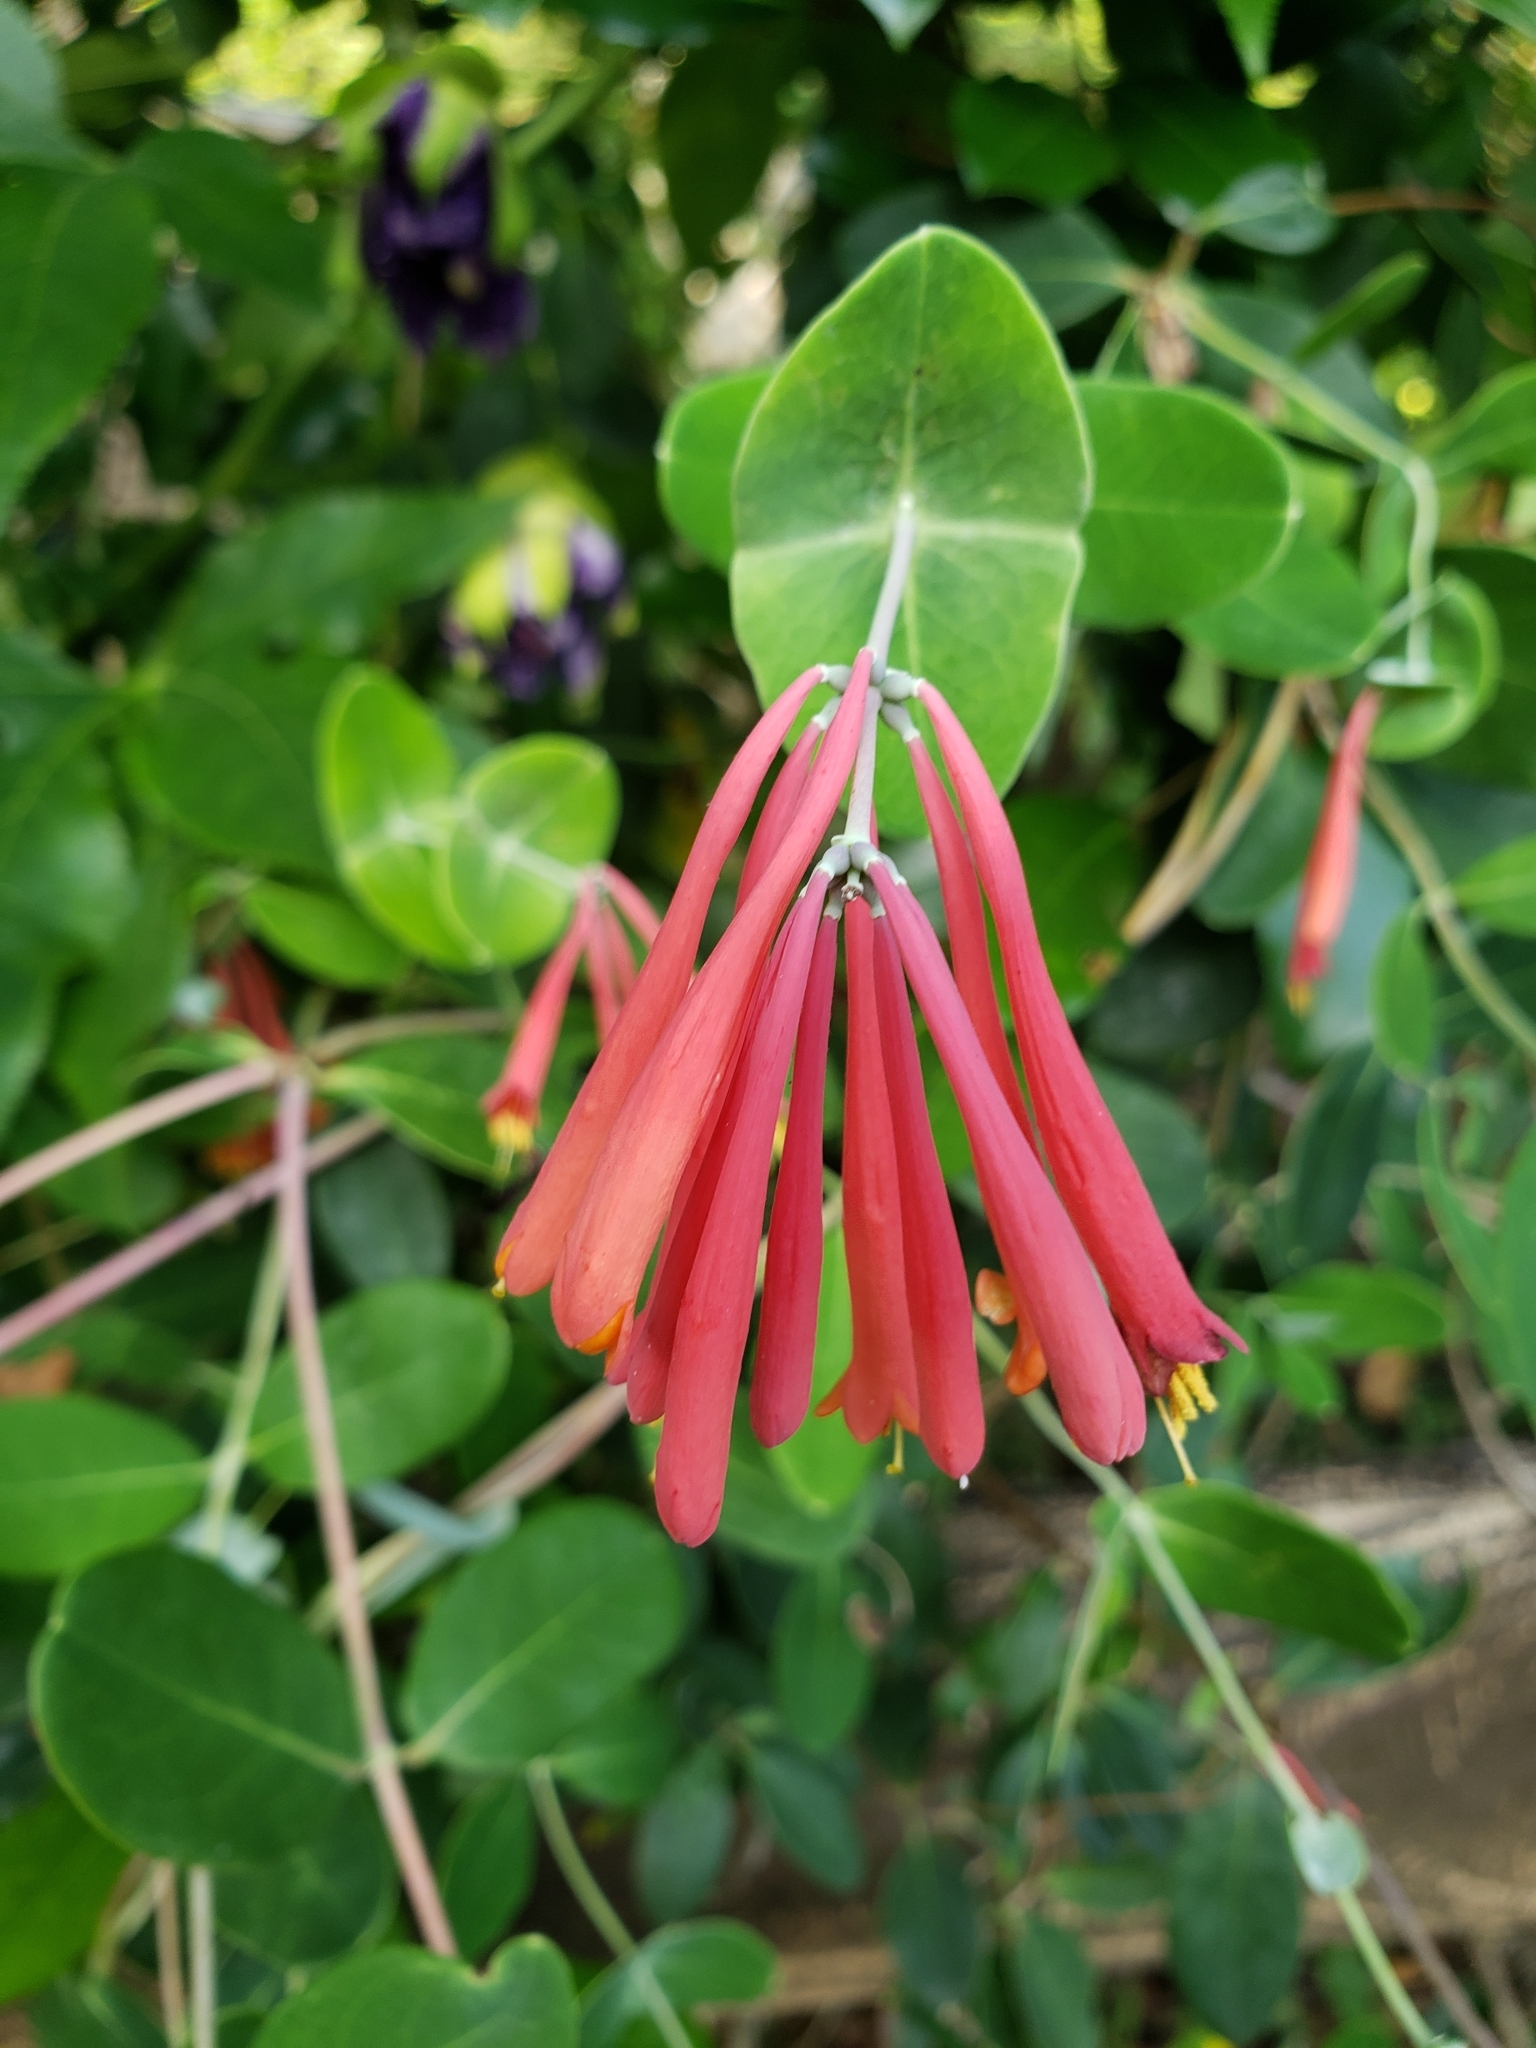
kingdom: Plantae
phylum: Tracheophyta
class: Magnoliopsida
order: Dipsacales
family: Caprifoliaceae
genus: Lonicera
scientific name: Lonicera sempervirens
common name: Coral honeysuckle
